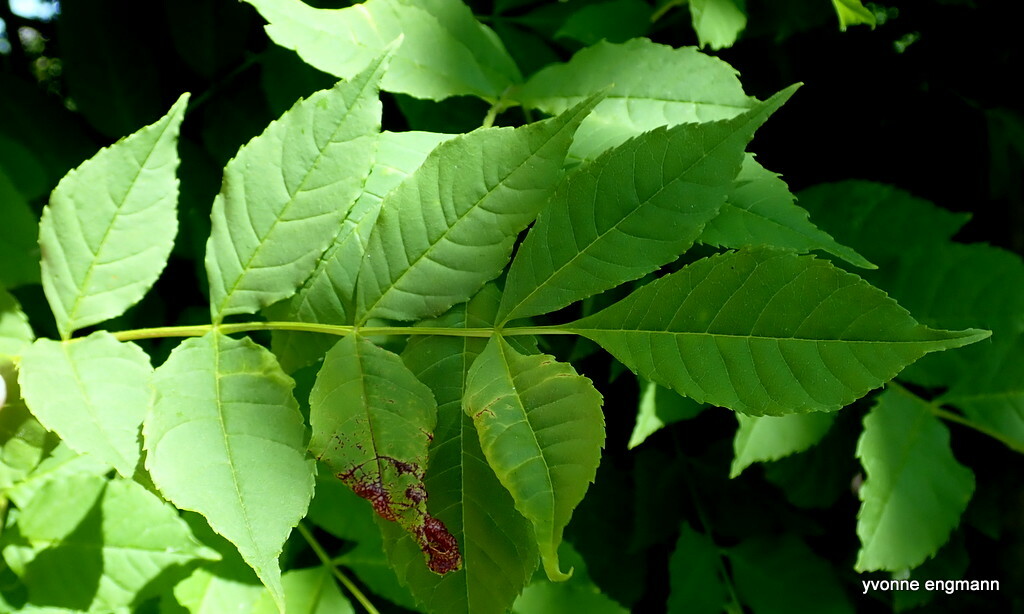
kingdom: Plantae
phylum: Tracheophyta
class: Magnoliopsida
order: Lamiales
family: Oleaceae
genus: Fraxinus
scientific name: Fraxinus excelsior
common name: European ash
